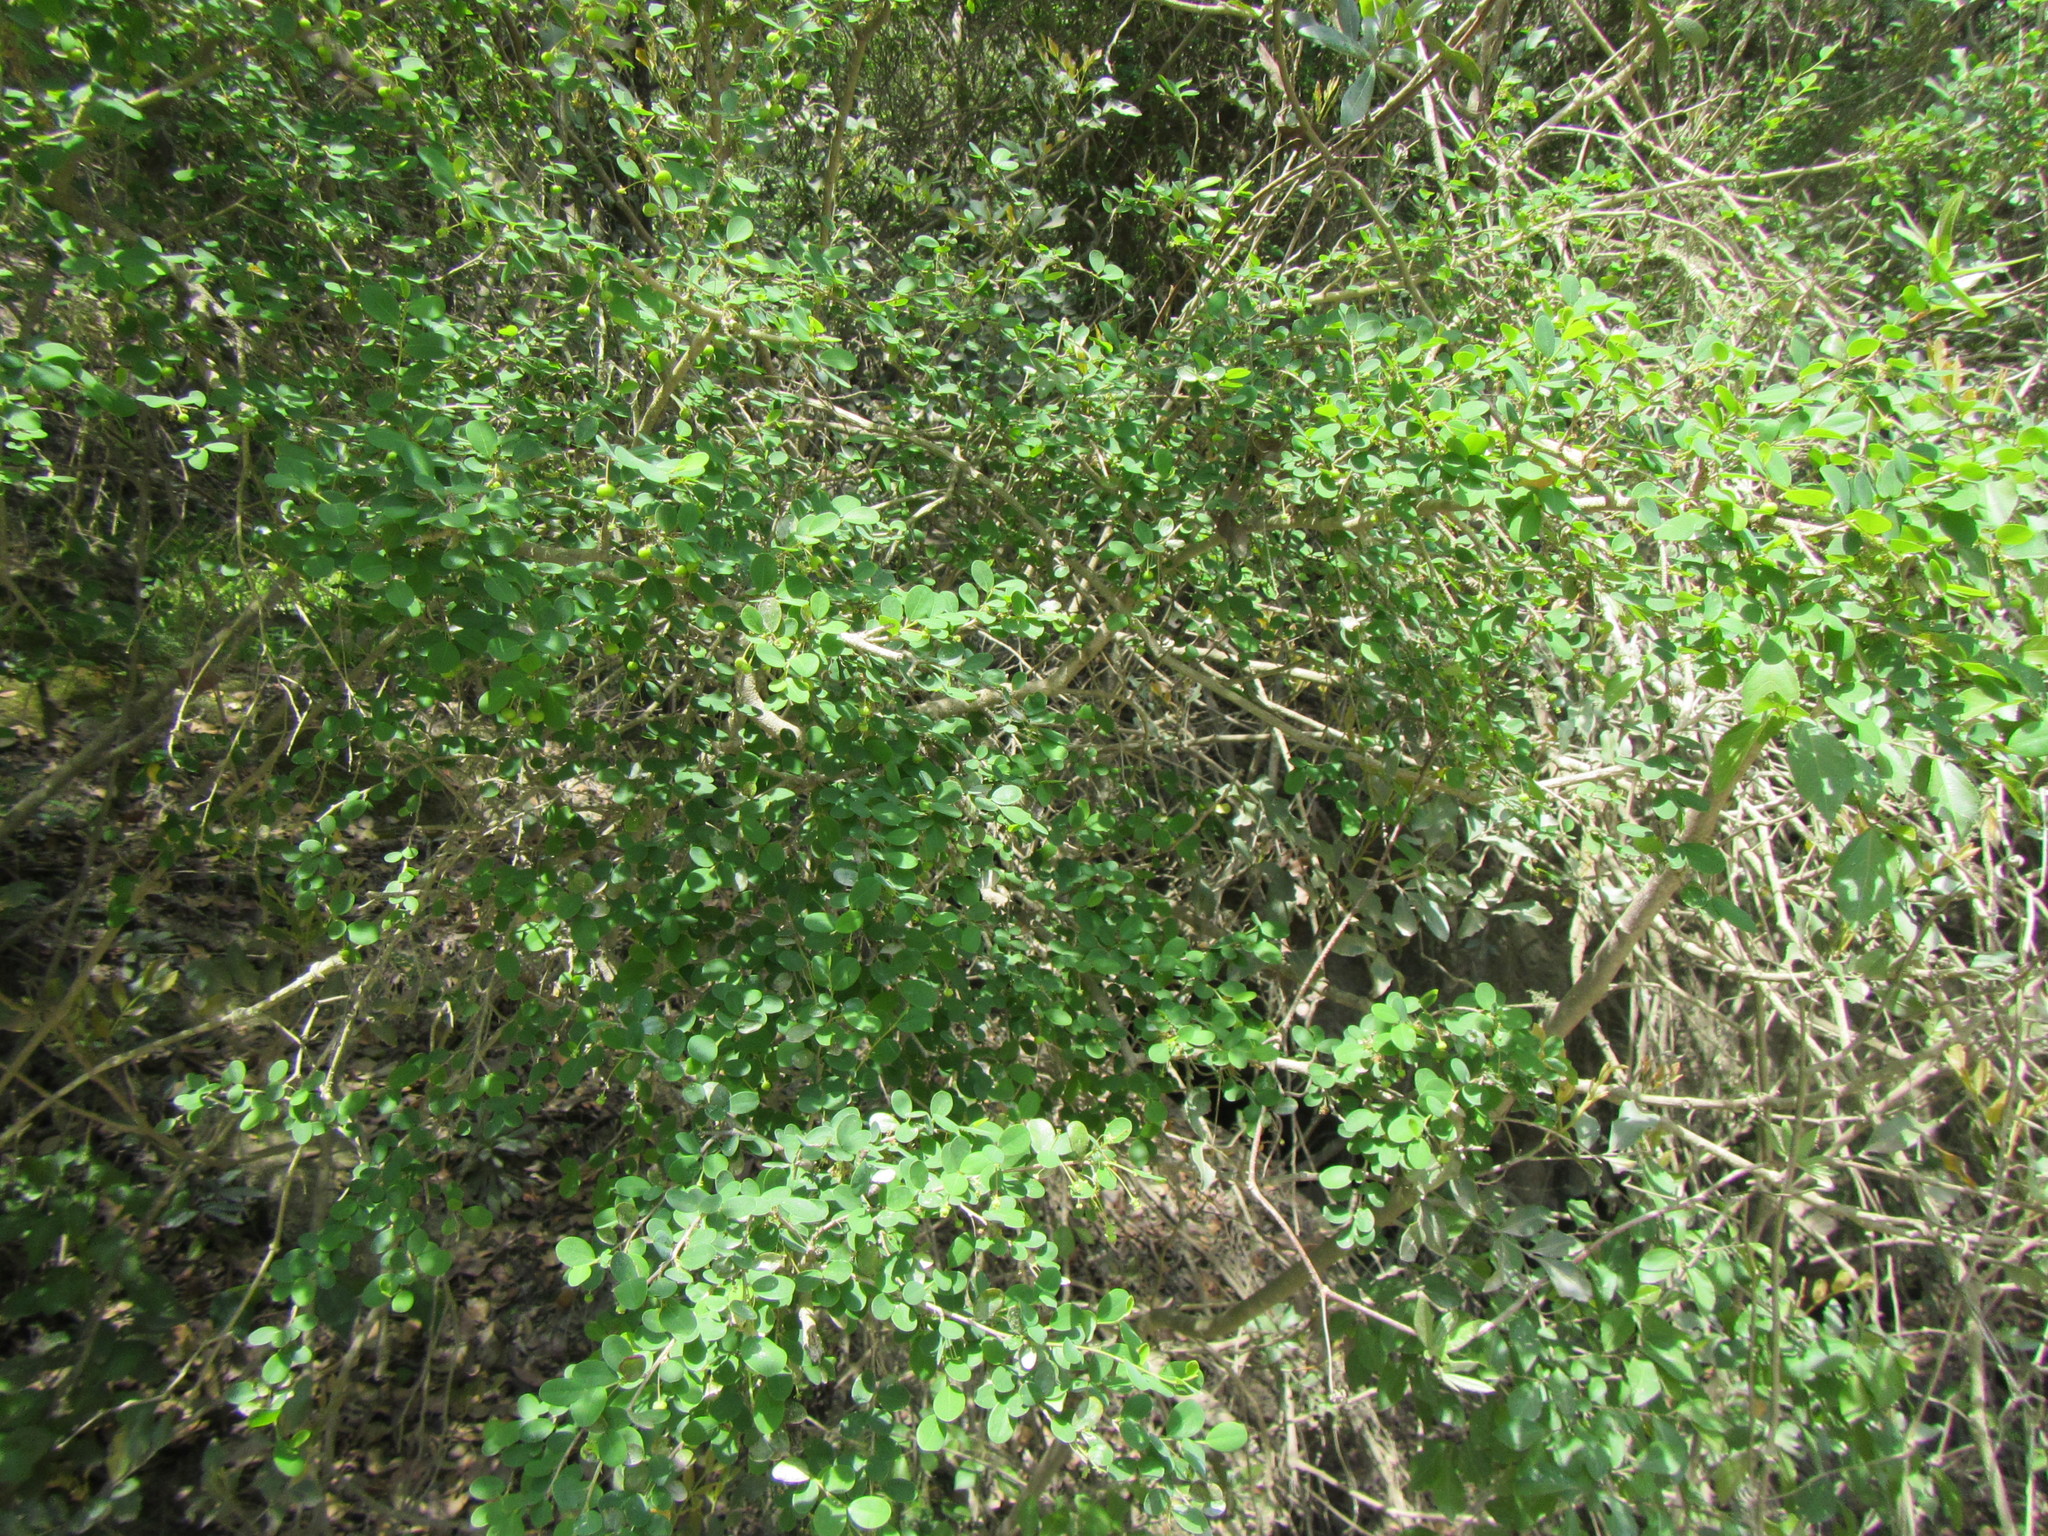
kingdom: Plantae
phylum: Tracheophyta
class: Magnoliopsida
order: Malpighiales
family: Phyllanthaceae
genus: Flueggea
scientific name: Flueggea verrucosa
